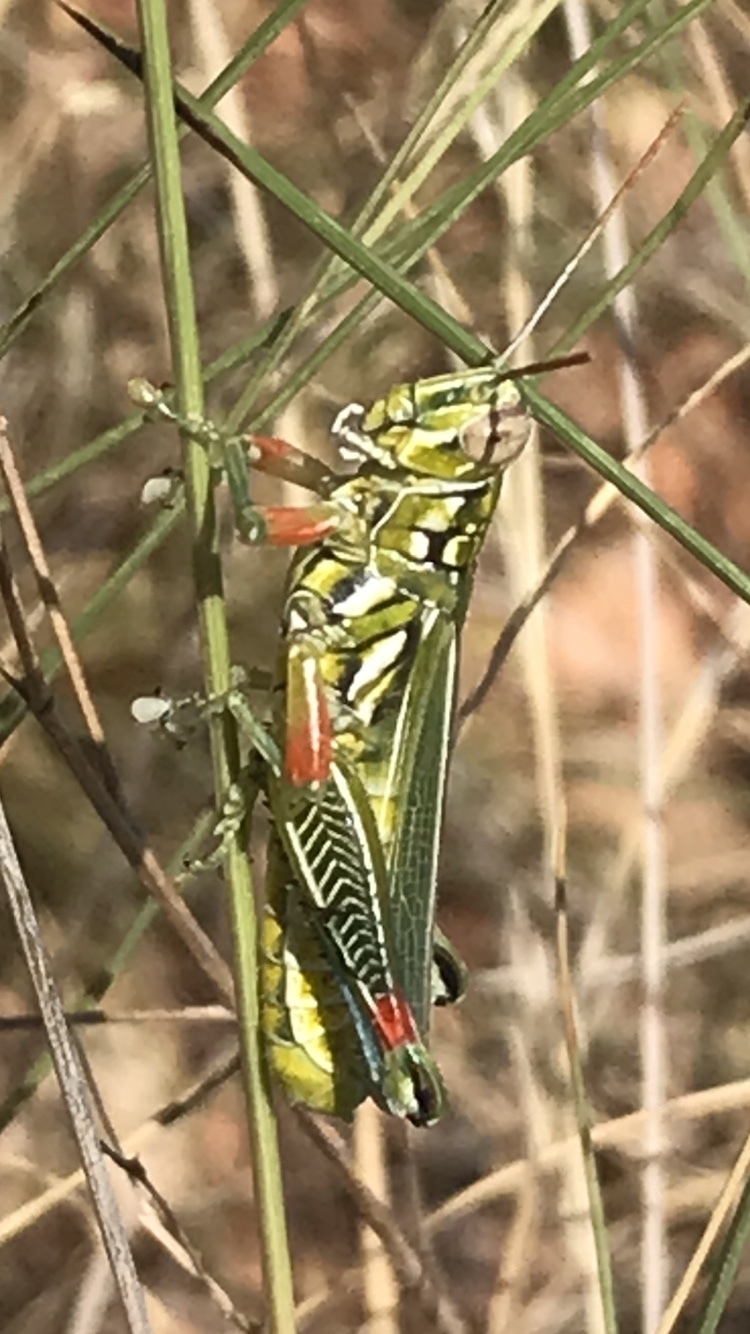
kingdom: Animalia
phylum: Arthropoda
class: Insecta
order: Orthoptera
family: Acrididae
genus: Hesperotettix
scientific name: Hesperotettix viridis
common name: Meadow purple-striped grasshopper
